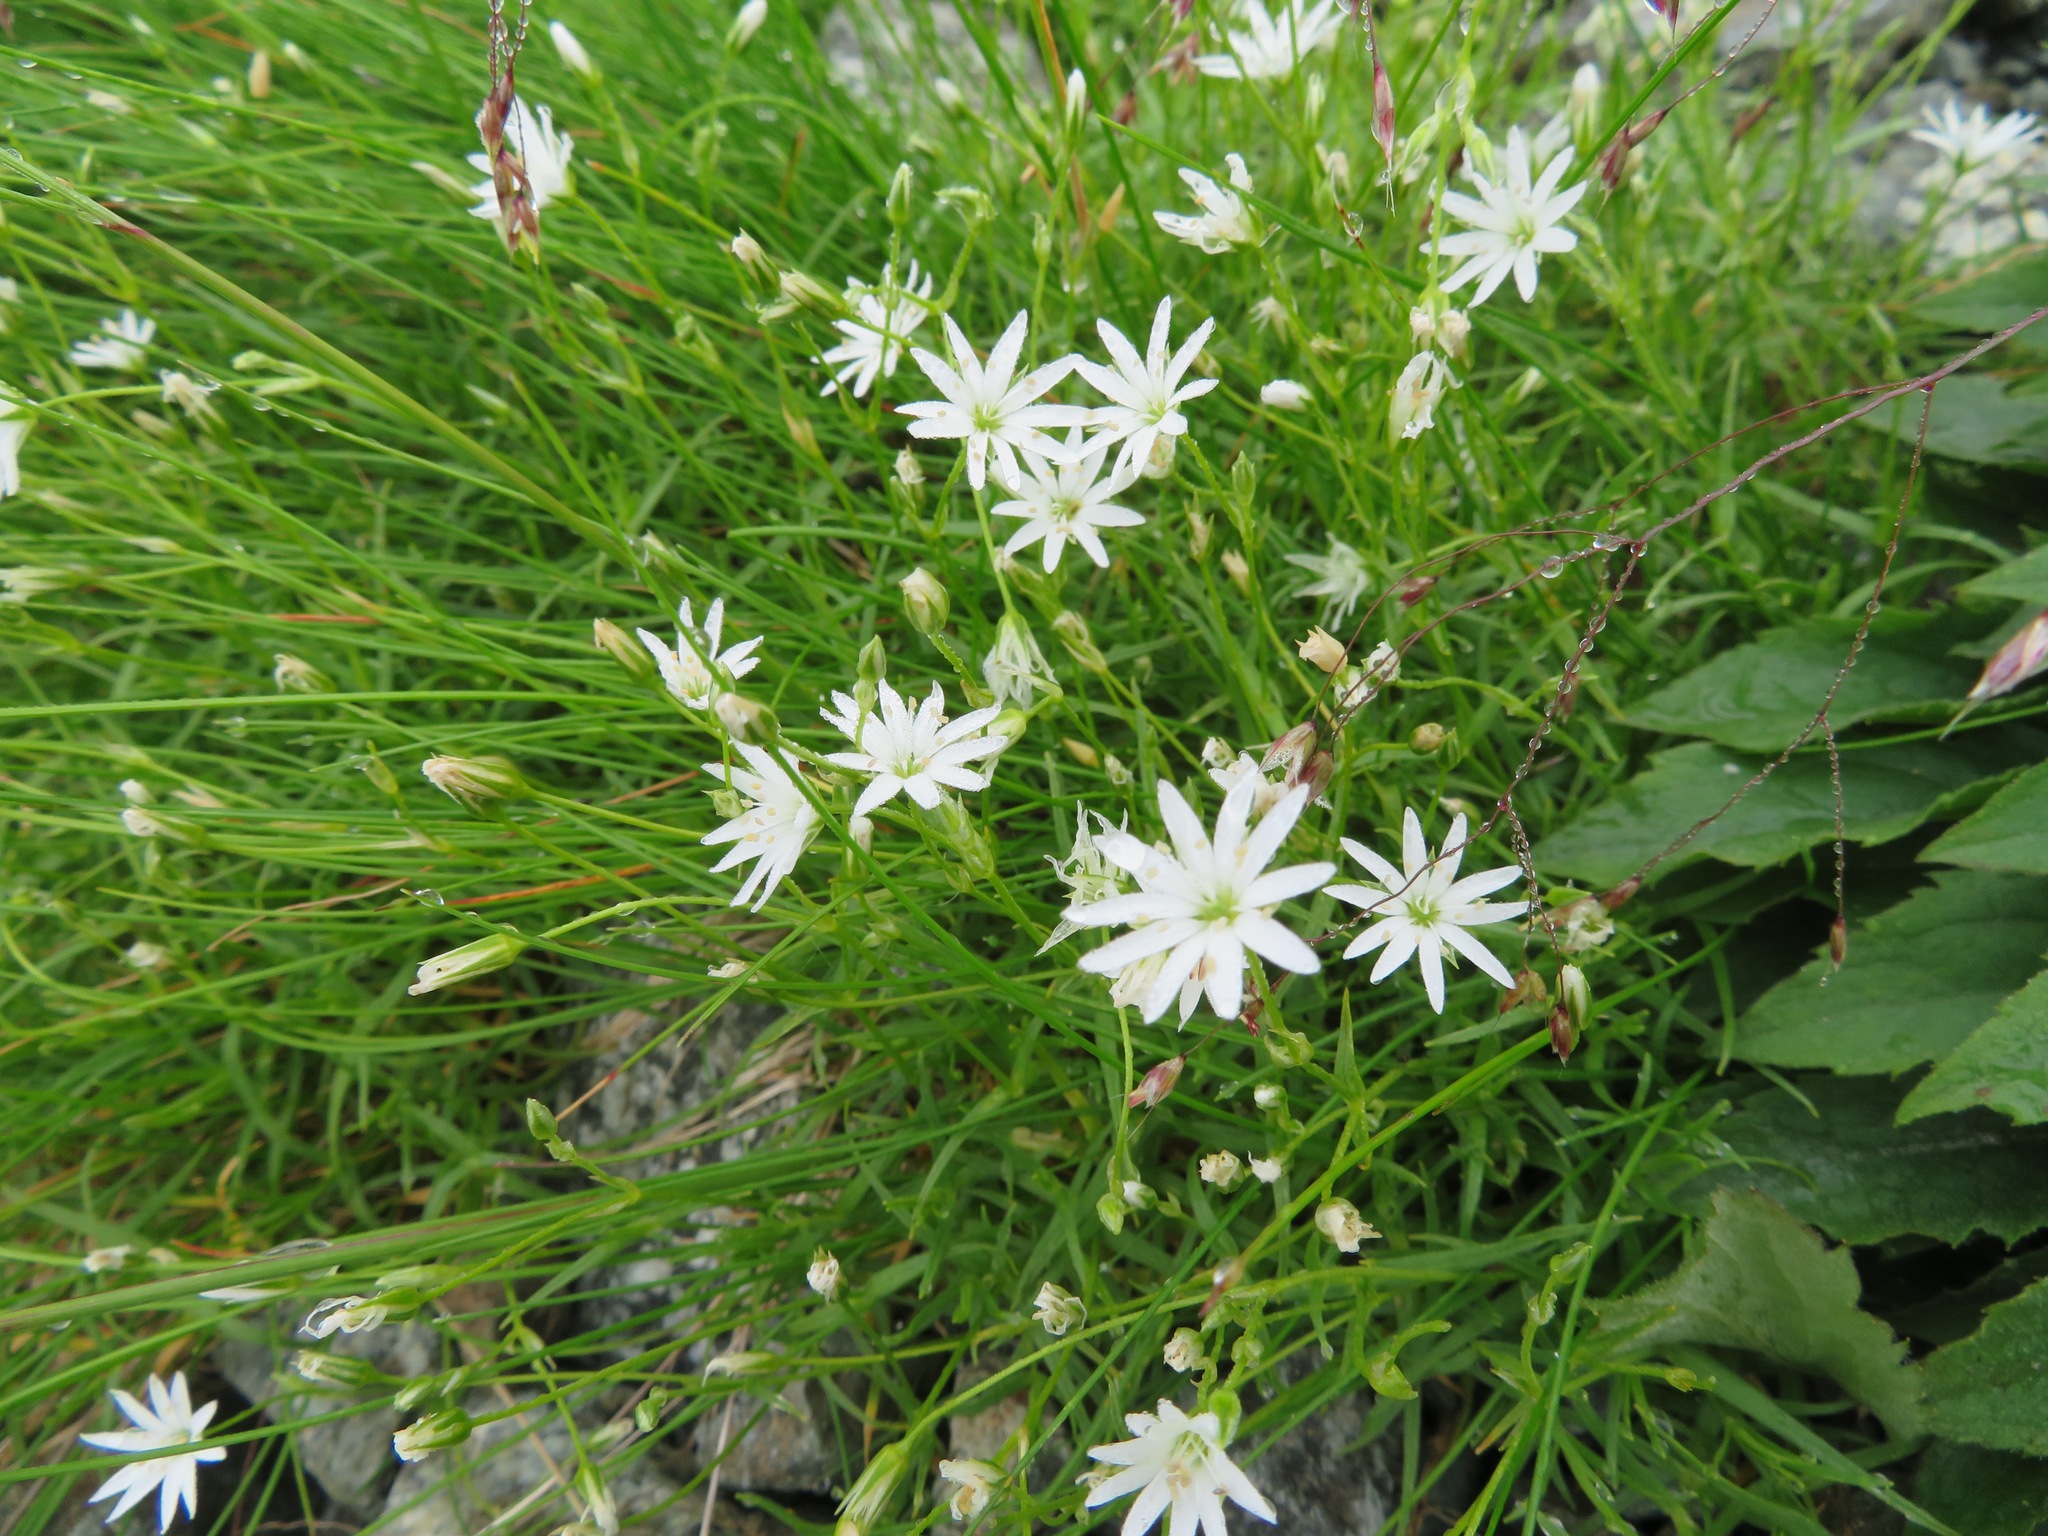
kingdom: Plantae
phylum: Tracheophyta
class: Magnoliopsida
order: Caryophyllales
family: Caryophyllaceae
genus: Stellaria
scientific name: Stellaria nipponica
